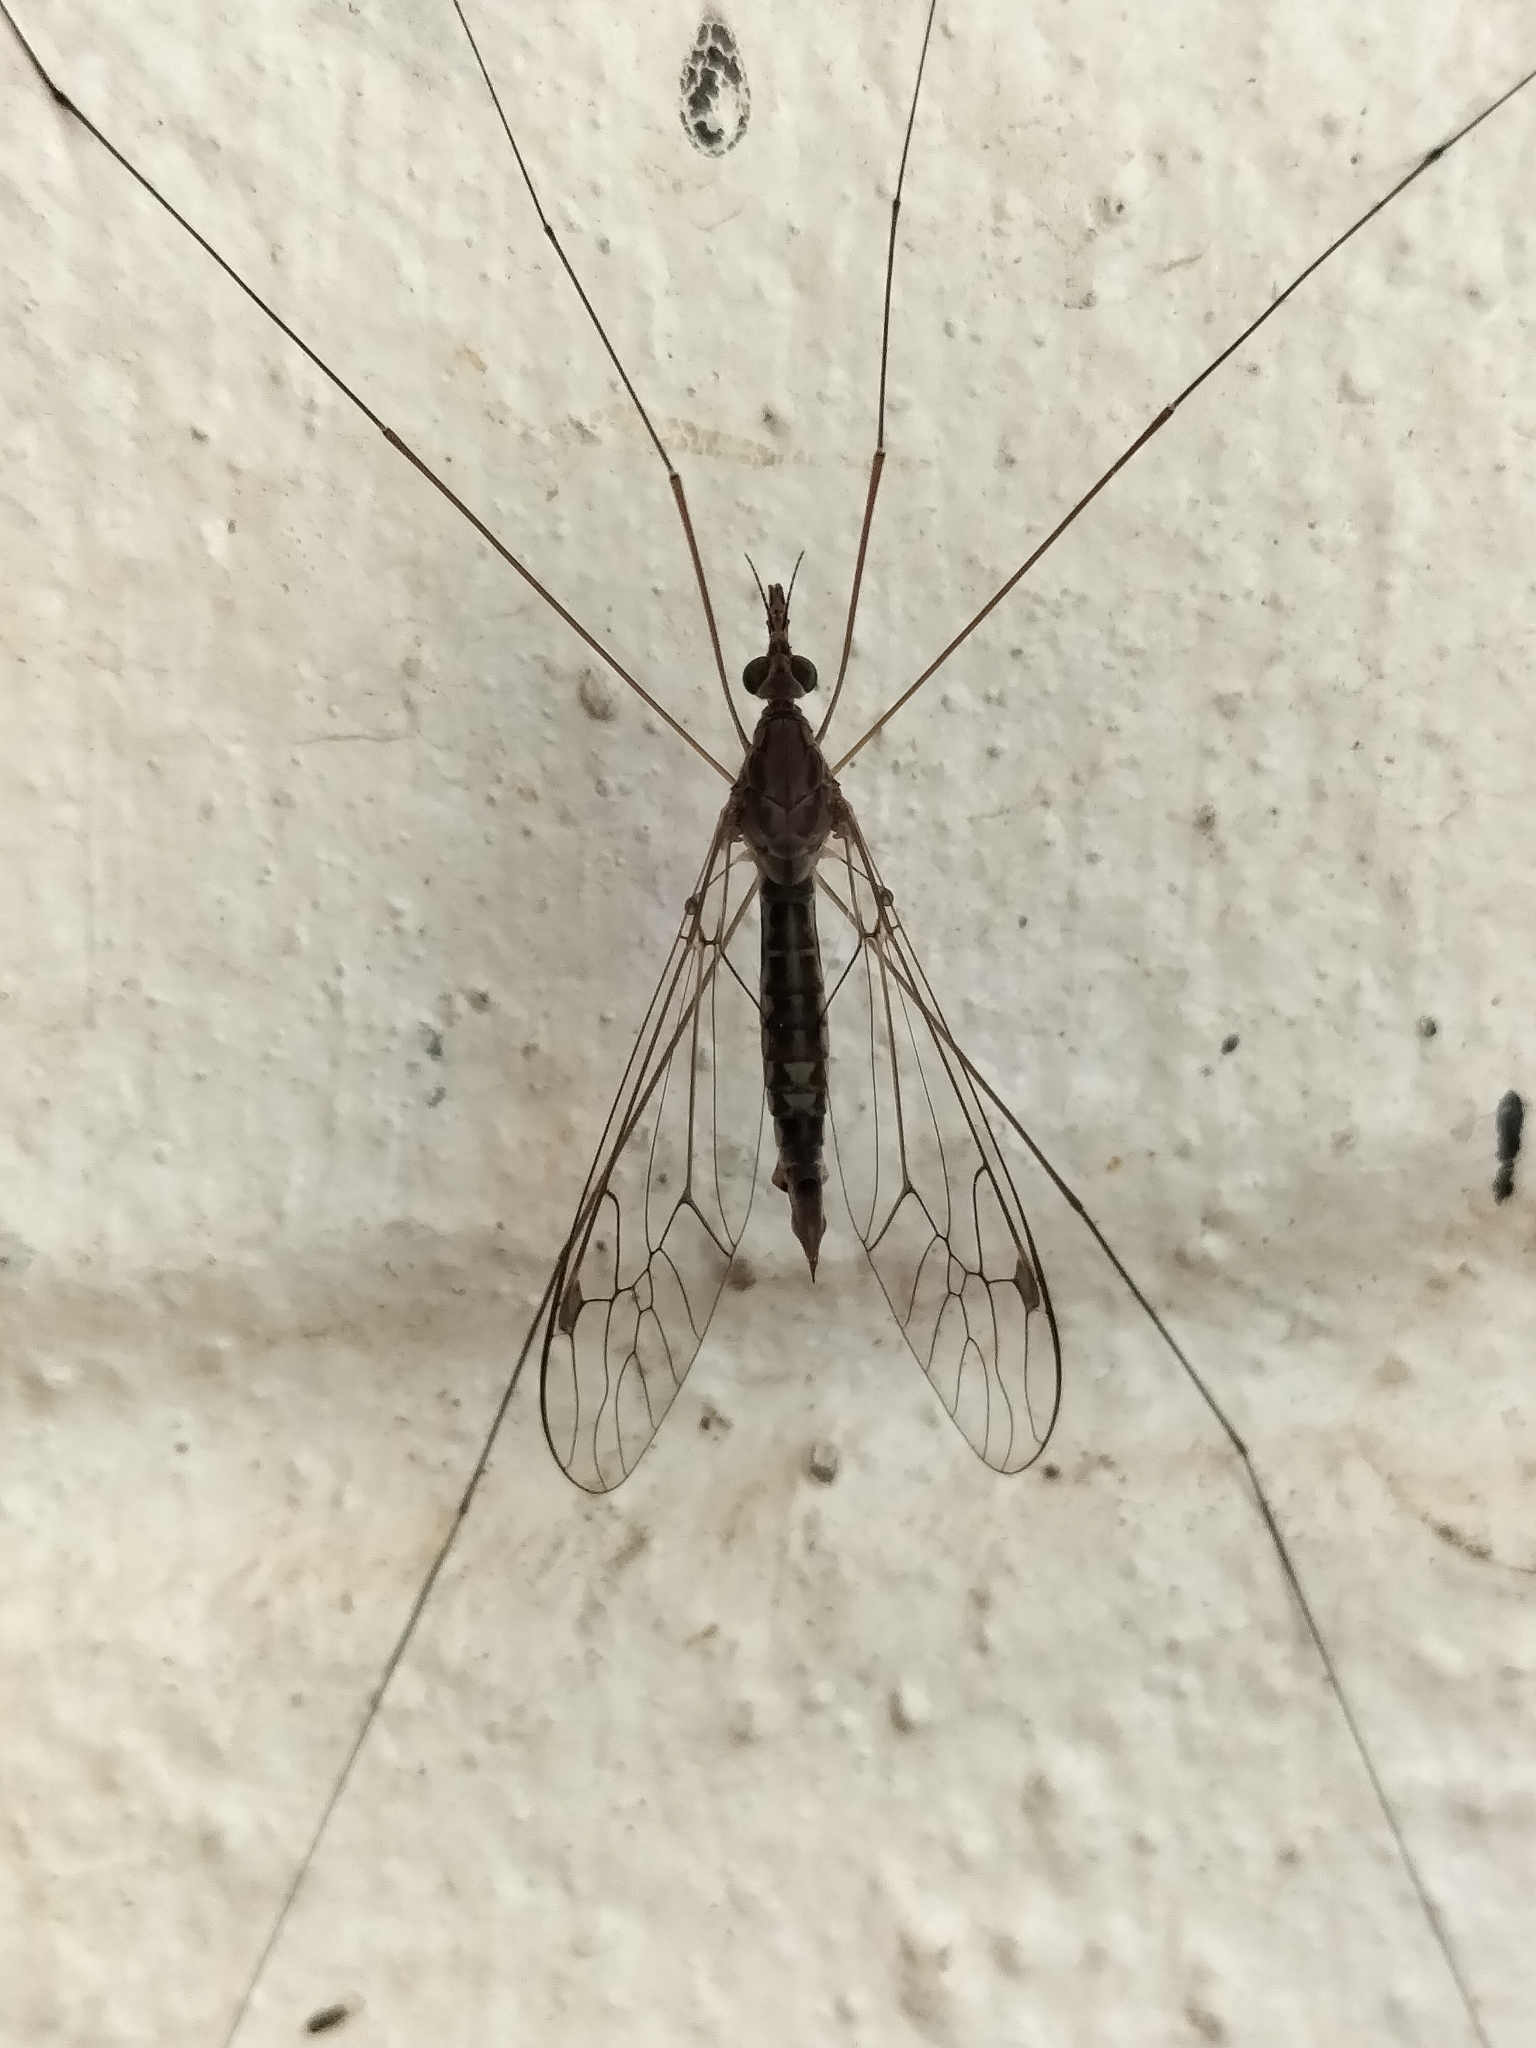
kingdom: Animalia
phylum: Arthropoda
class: Insecta
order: Diptera
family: Tipulidae
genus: Maekistocera
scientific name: Maekistocera filipes
